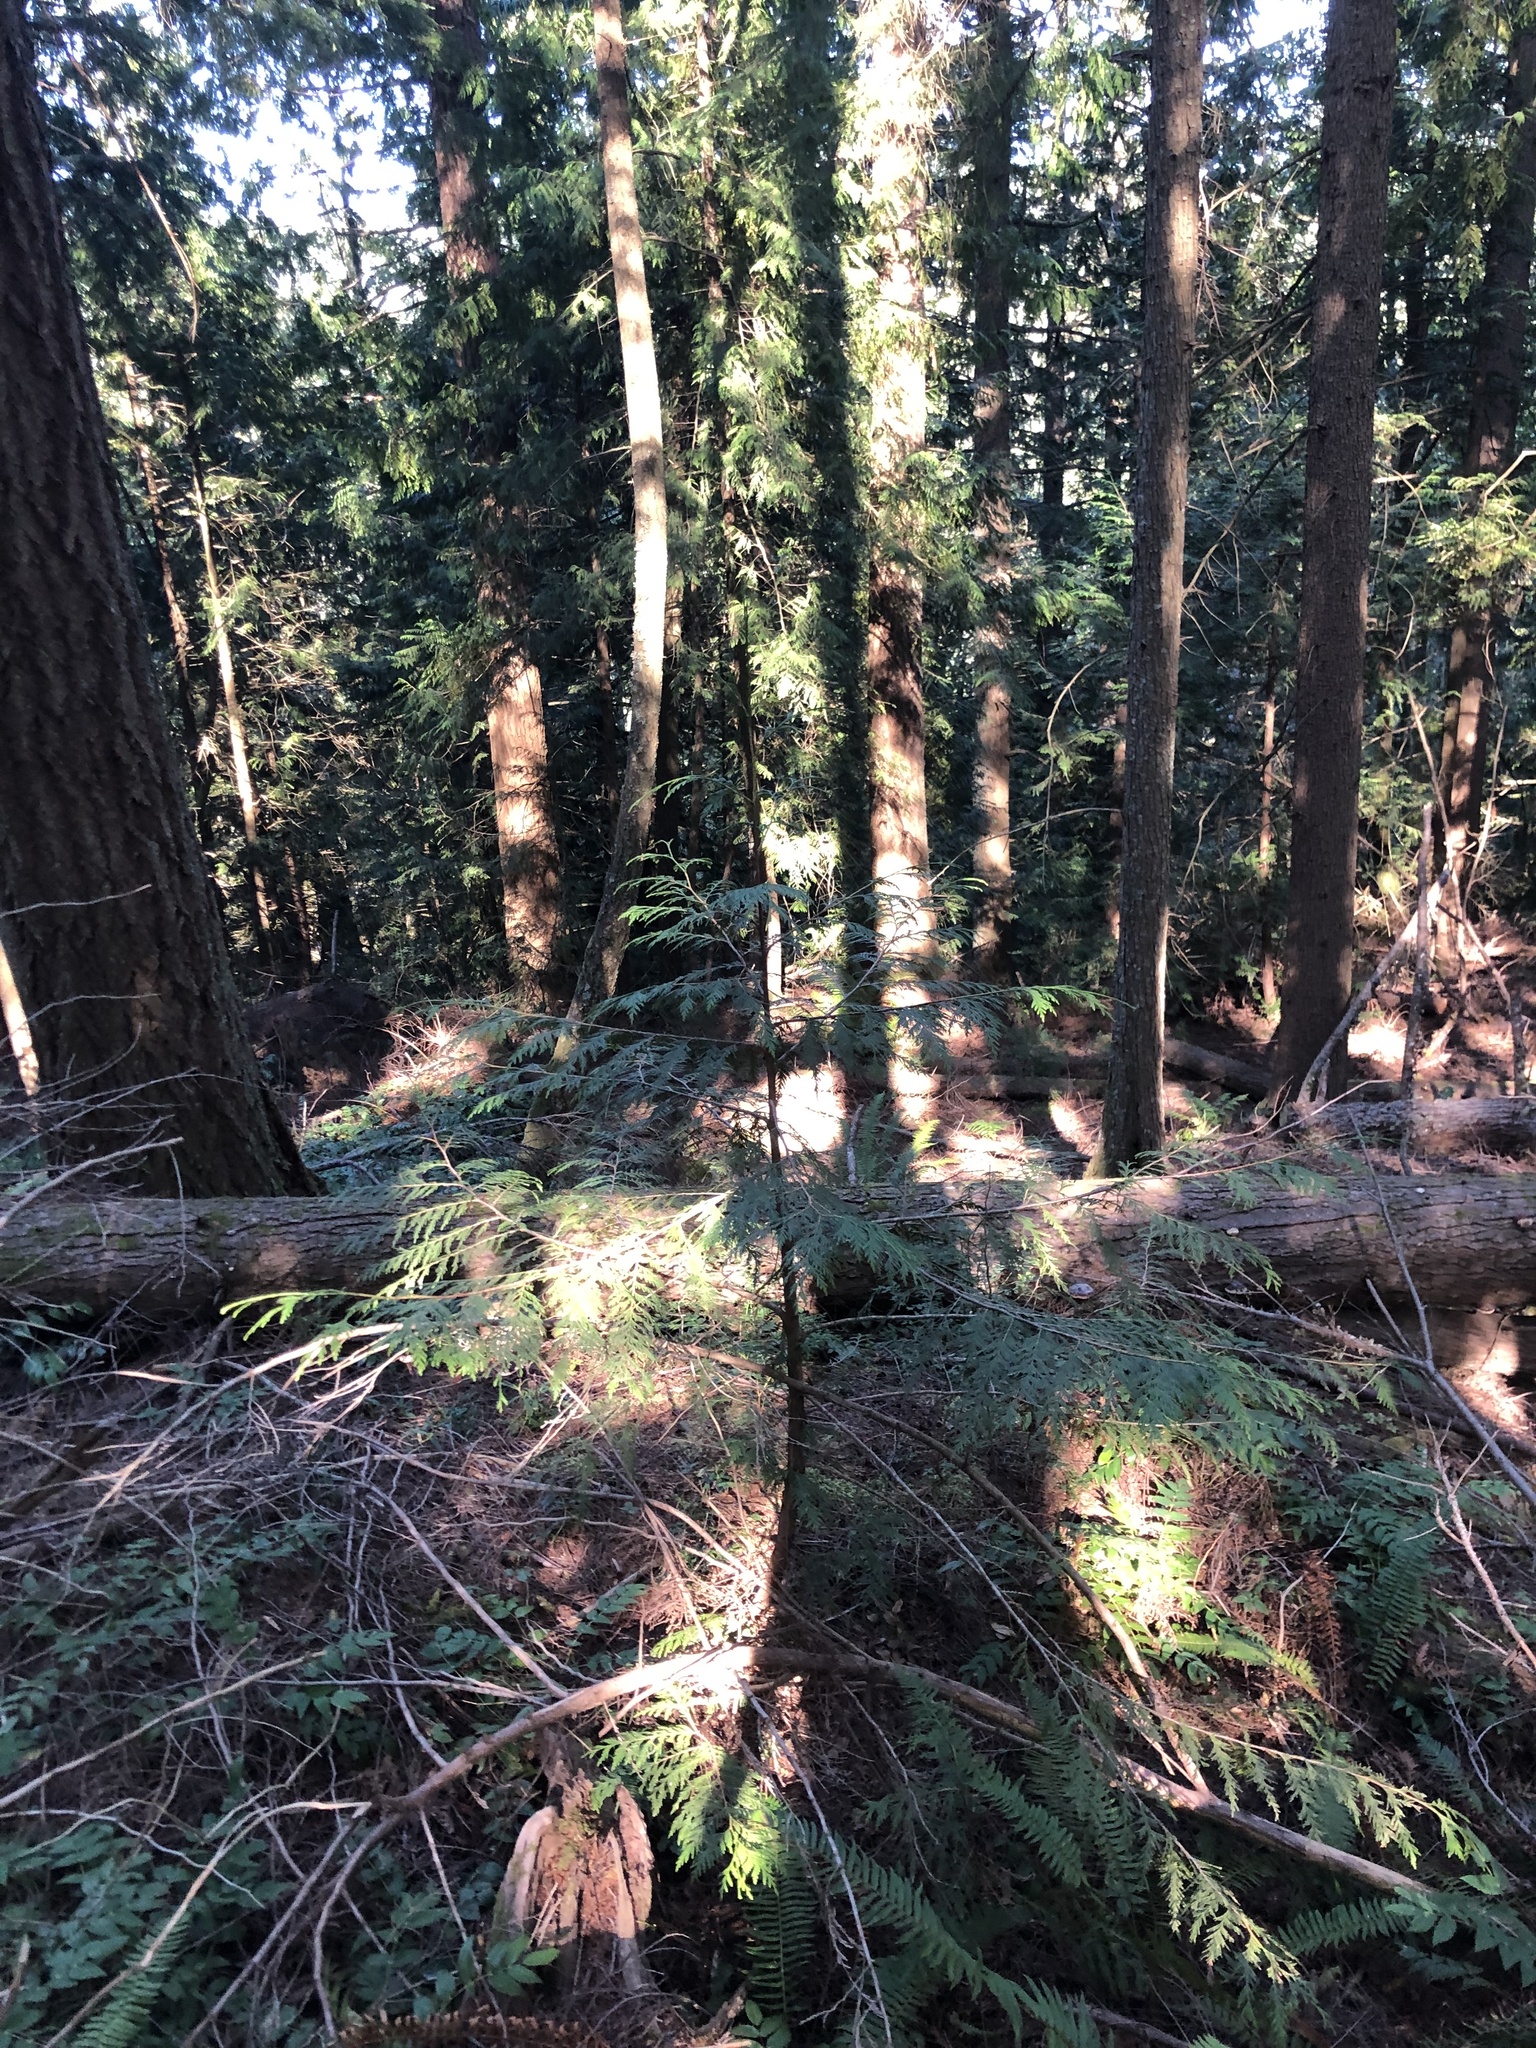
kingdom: Plantae
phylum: Tracheophyta
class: Pinopsida
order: Pinales
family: Cupressaceae
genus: Thuja
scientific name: Thuja plicata
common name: Western red-cedar
